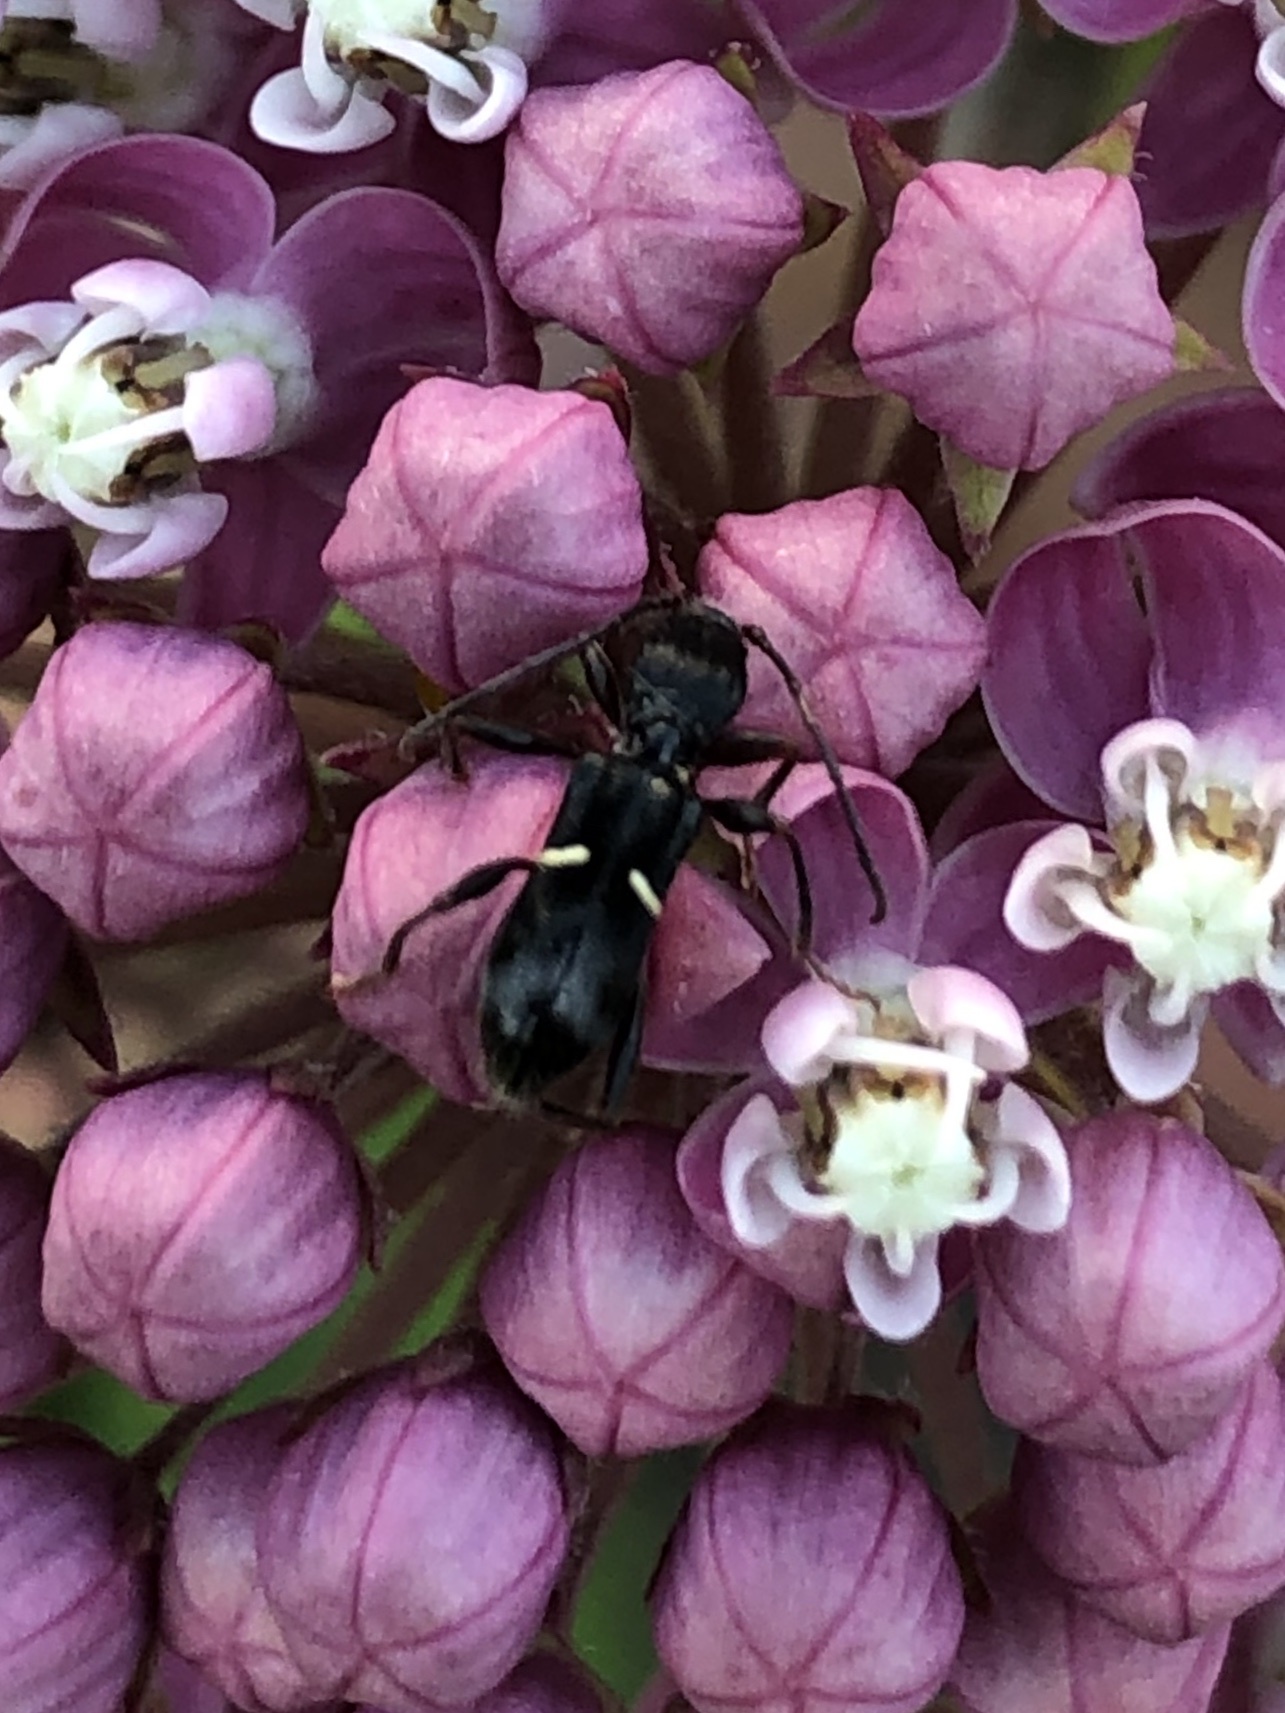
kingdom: Animalia
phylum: Arthropoda
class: Insecta
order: Coleoptera
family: Cerambycidae
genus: Euderces
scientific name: Euderces picipes
